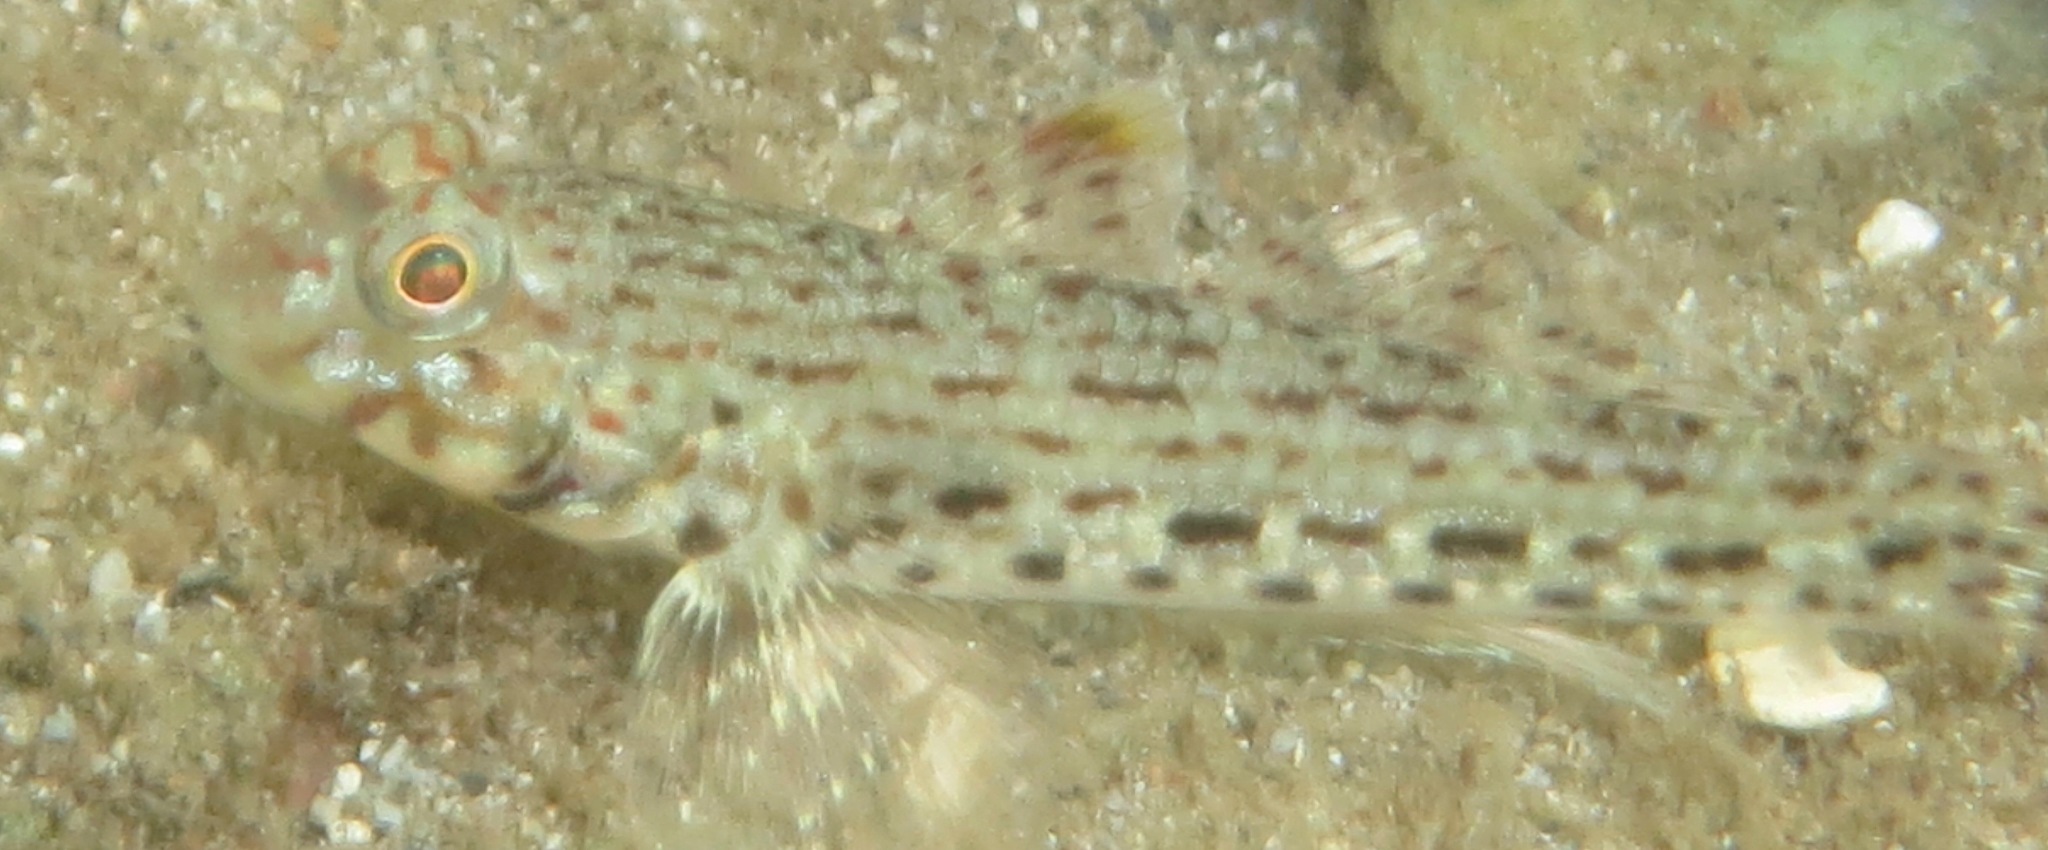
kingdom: Animalia
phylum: Chordata
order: Perciformes
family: Gobiidae
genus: Istigobius
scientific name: Istigobius ornatus
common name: Ornate goby
